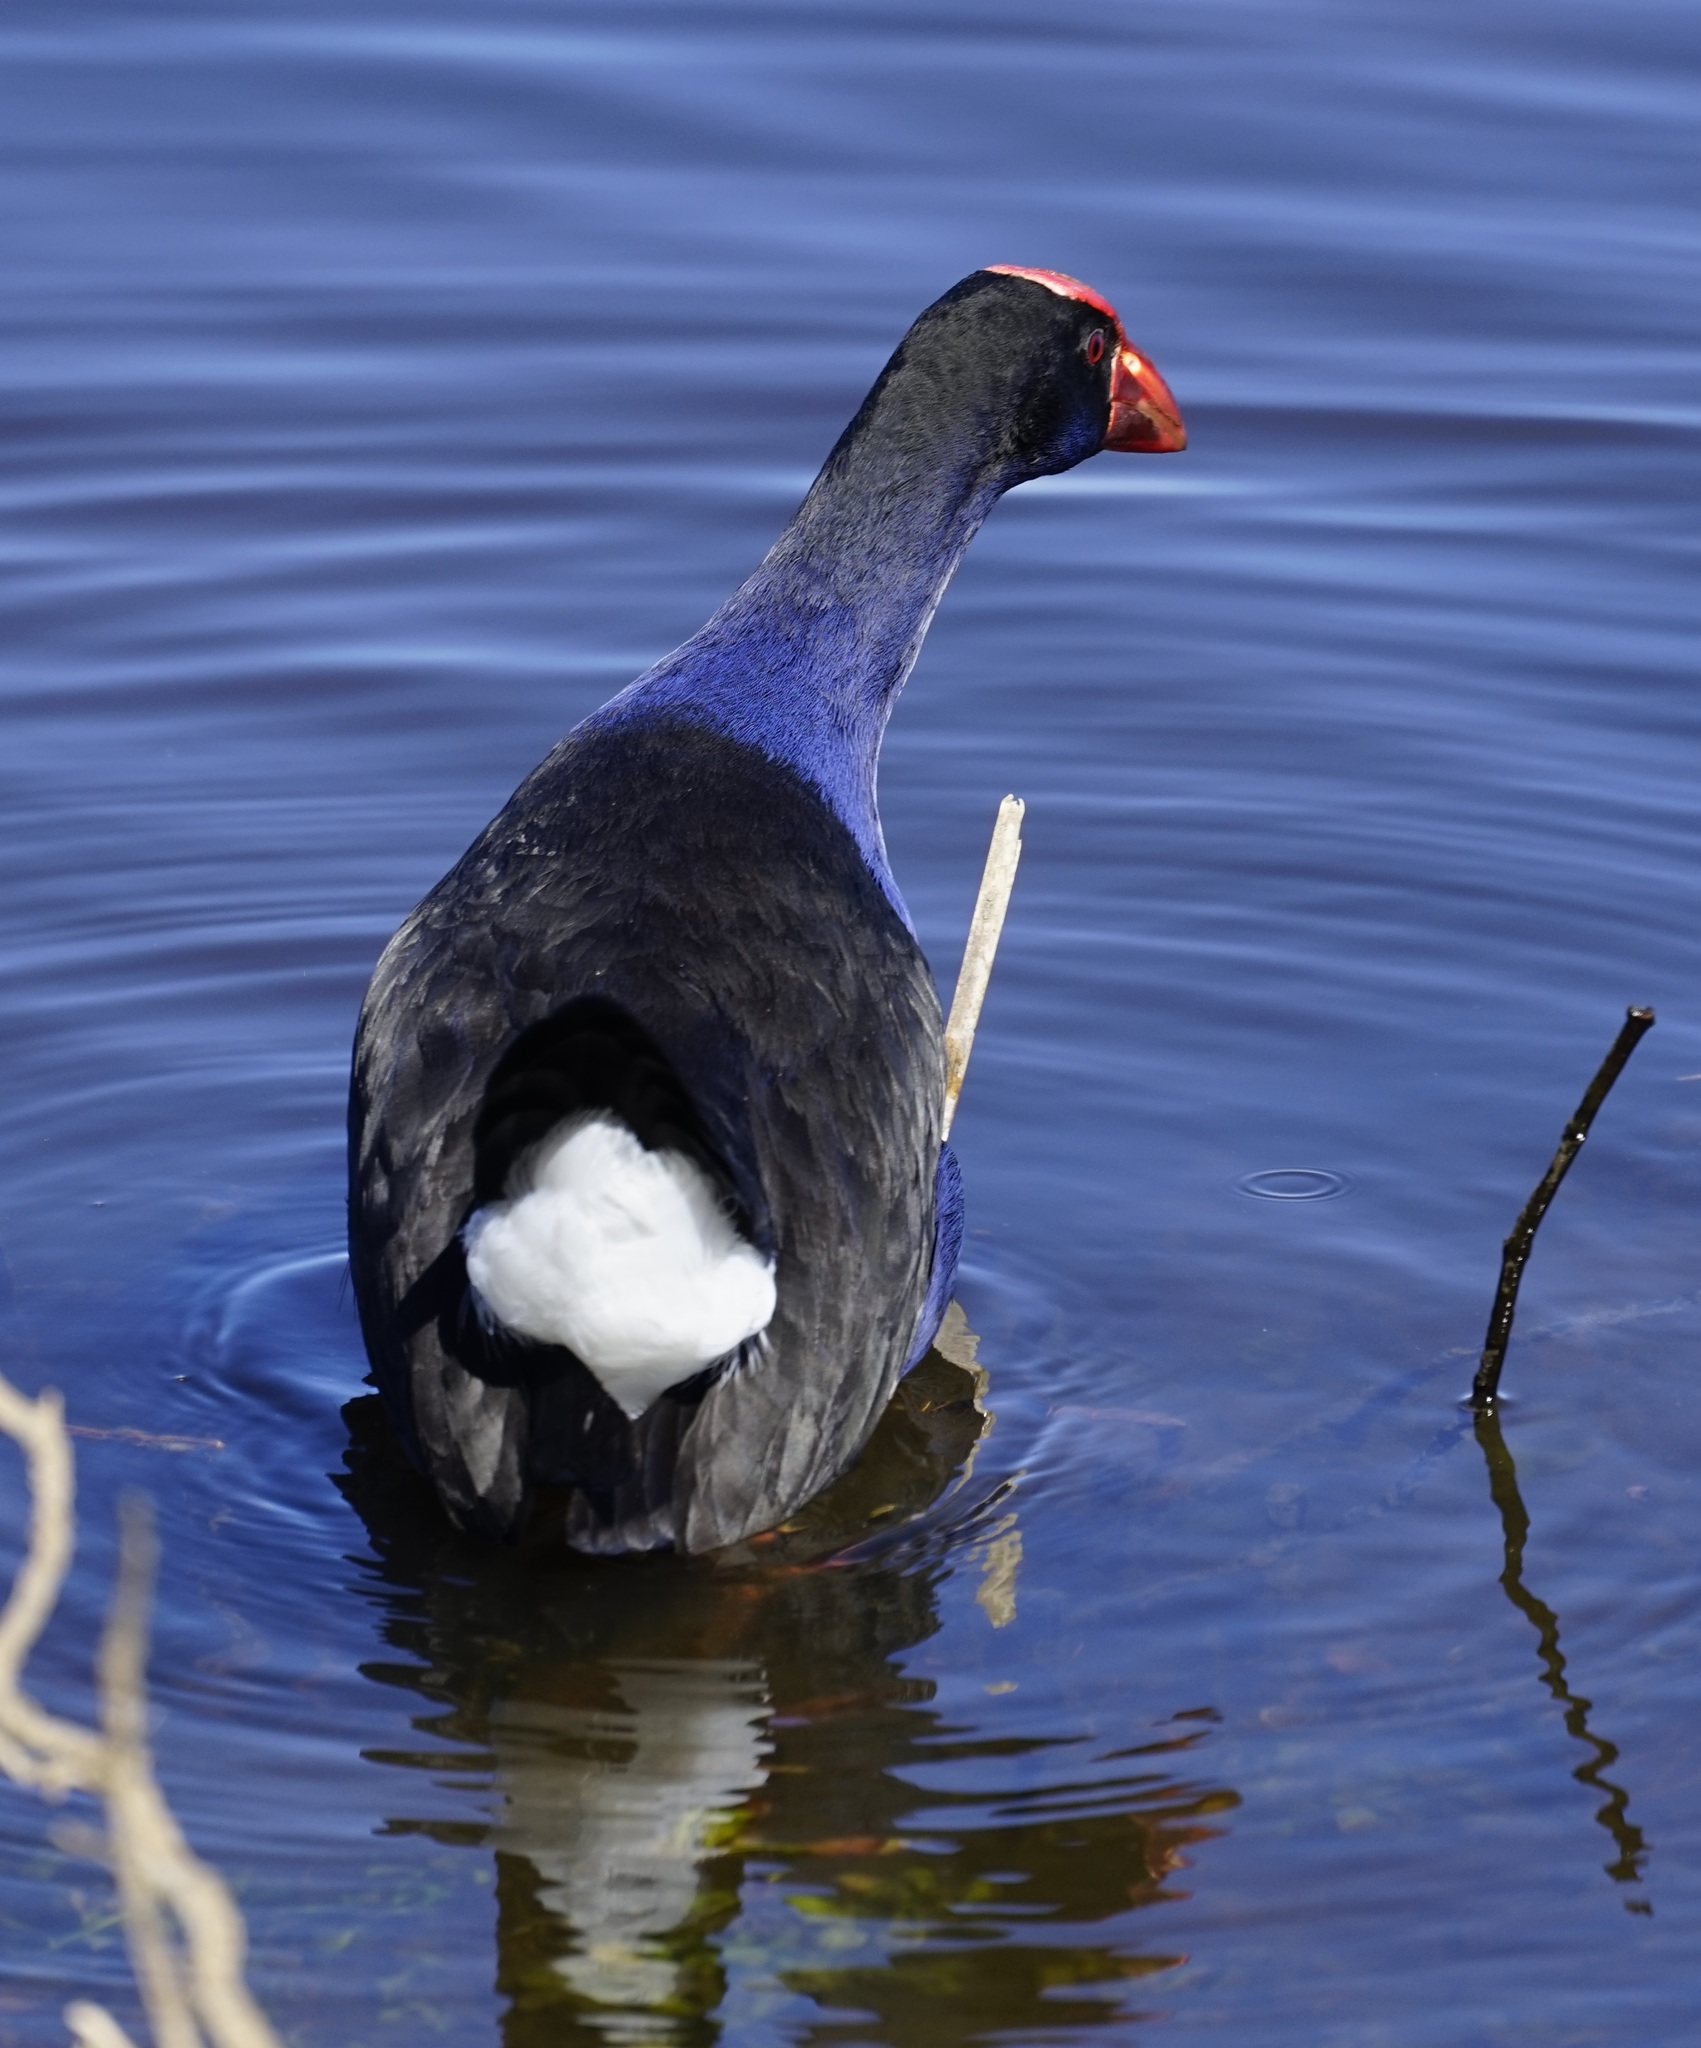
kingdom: Animalia
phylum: Chordata
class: Aves
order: Gruiformes
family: Rallidae
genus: Porphyrio
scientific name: Porphyrio melanotus
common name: Australasian swamphen
